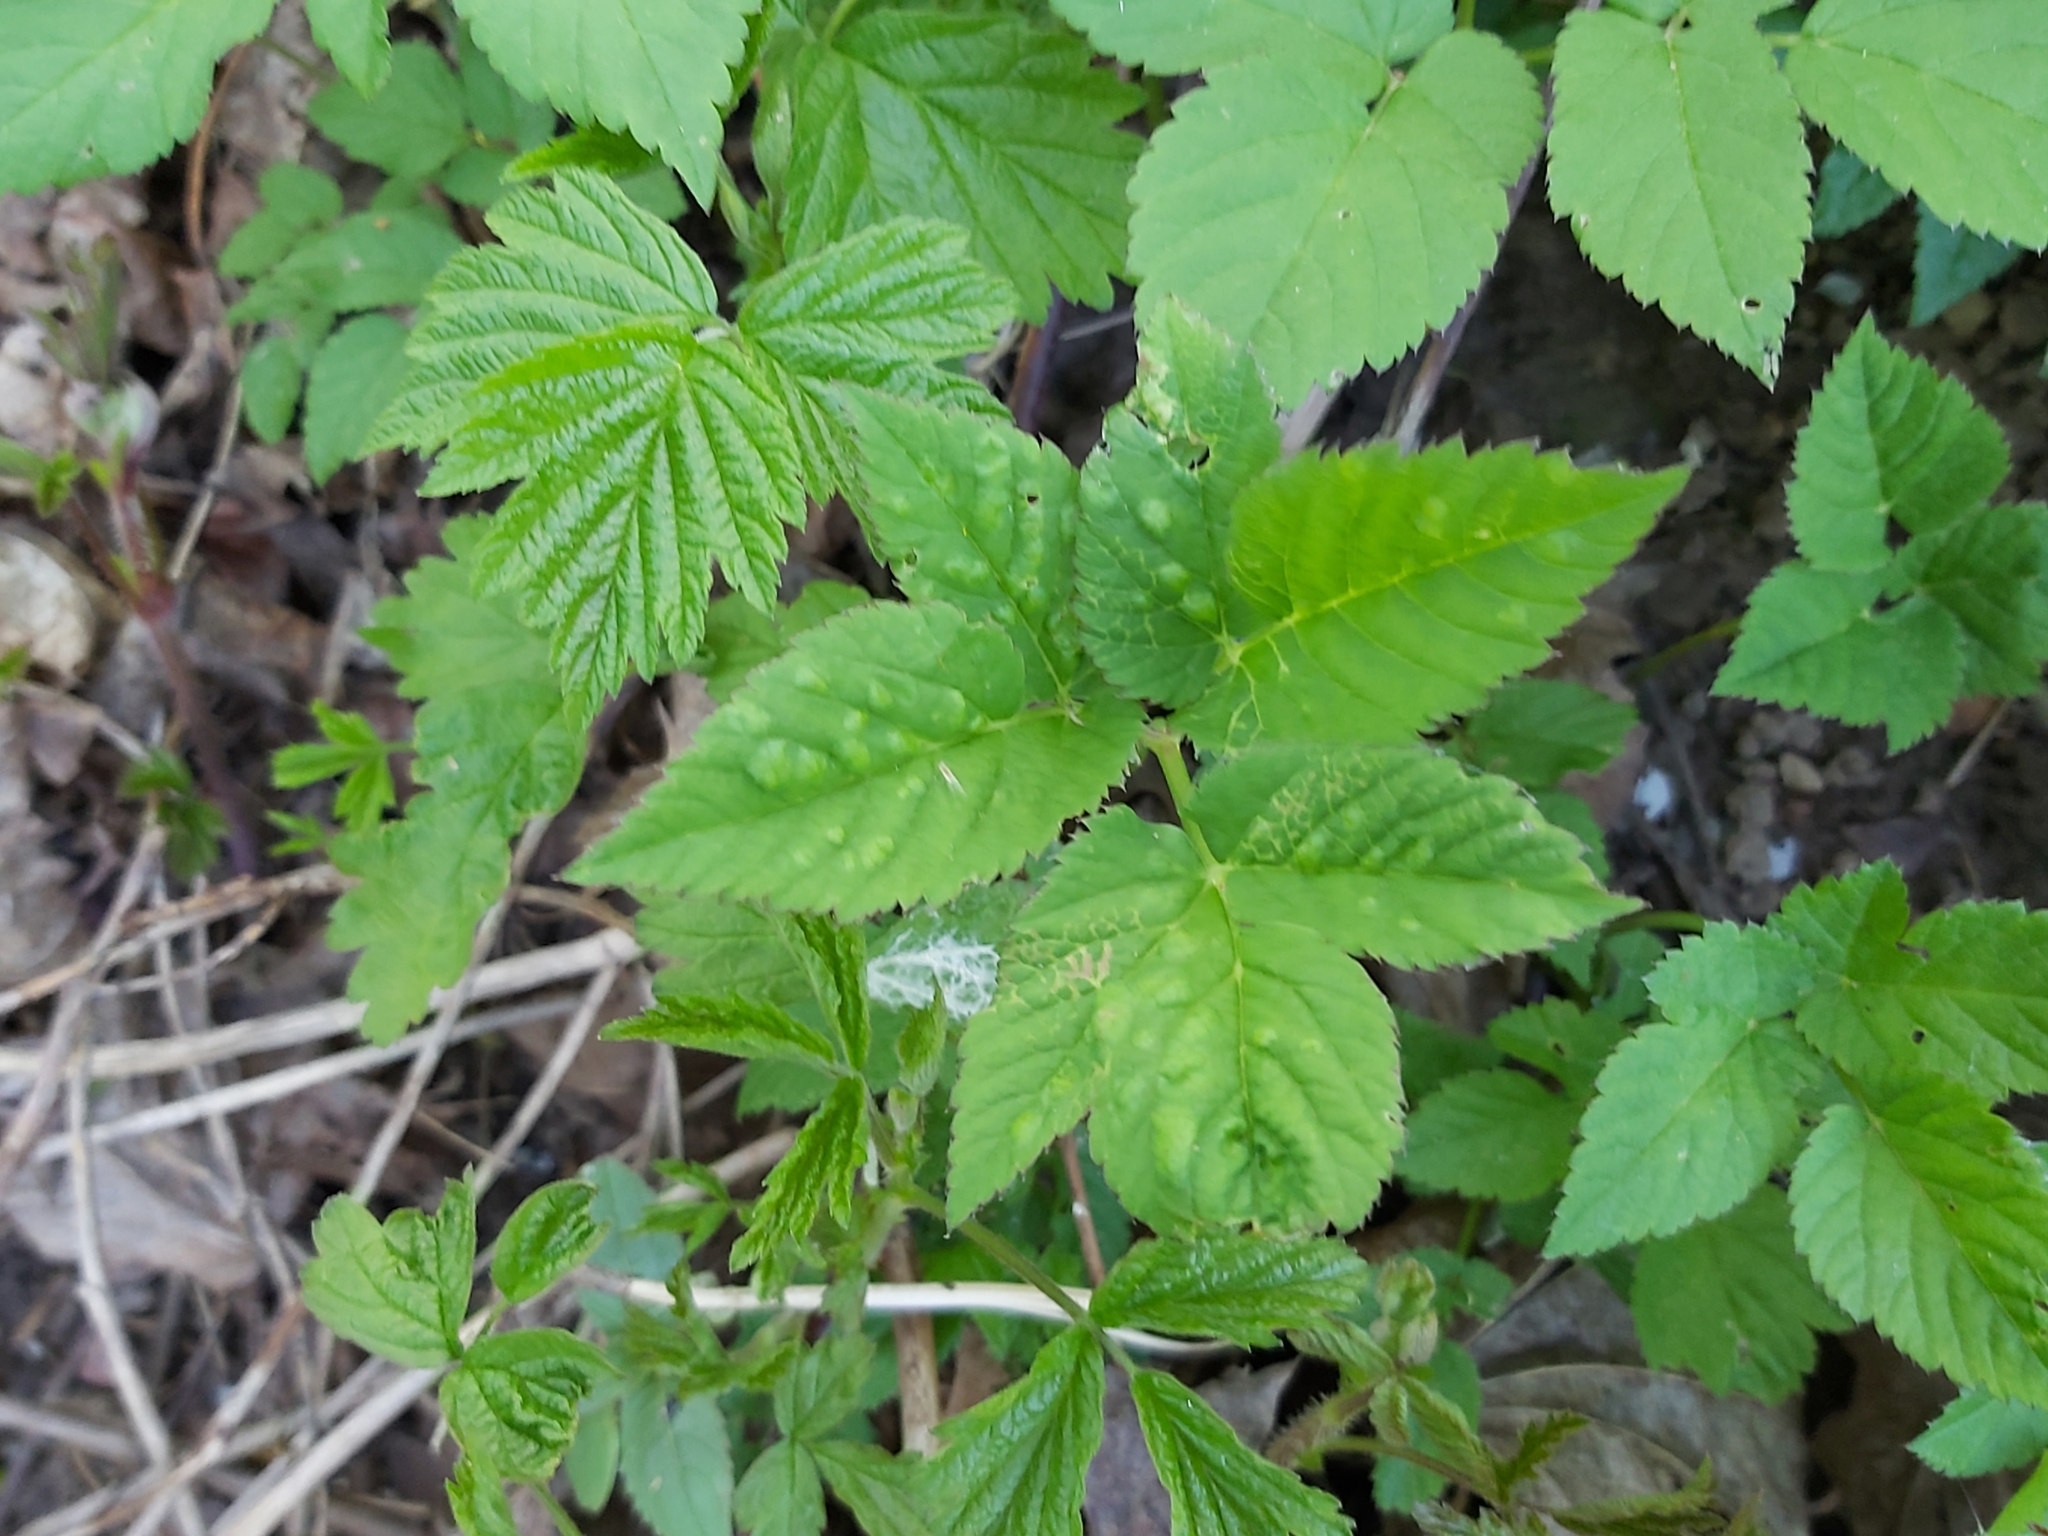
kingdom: Animalia
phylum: Arthropoda
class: Insecta
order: Hemiptera
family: Triozidae
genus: Trioza
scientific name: Trioza flavipennis
